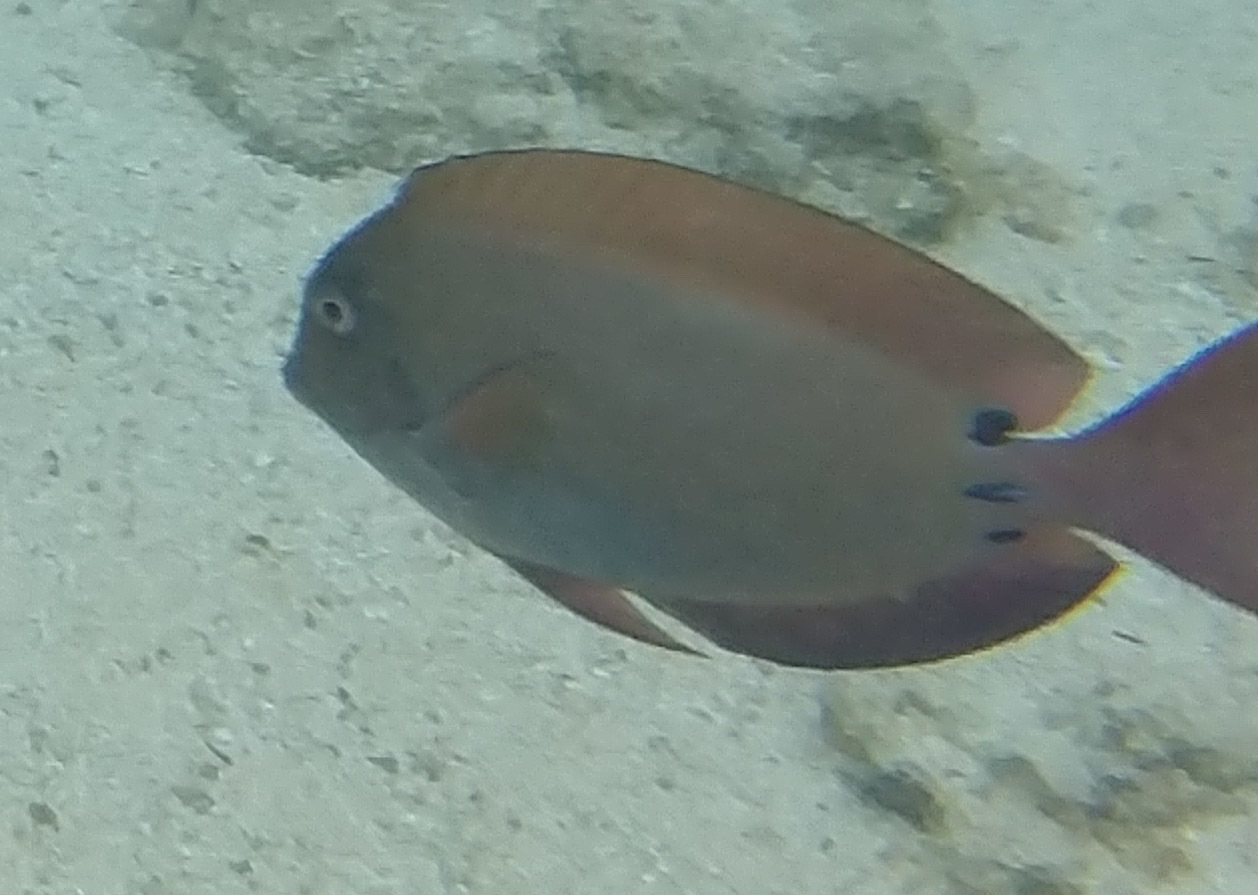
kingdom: Animalia
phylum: Chordata
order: Perciformes
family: Acanthuridae
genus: Acanthurus
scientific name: Acanthurus nigrofuscus
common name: Blackspot surgeonfish
